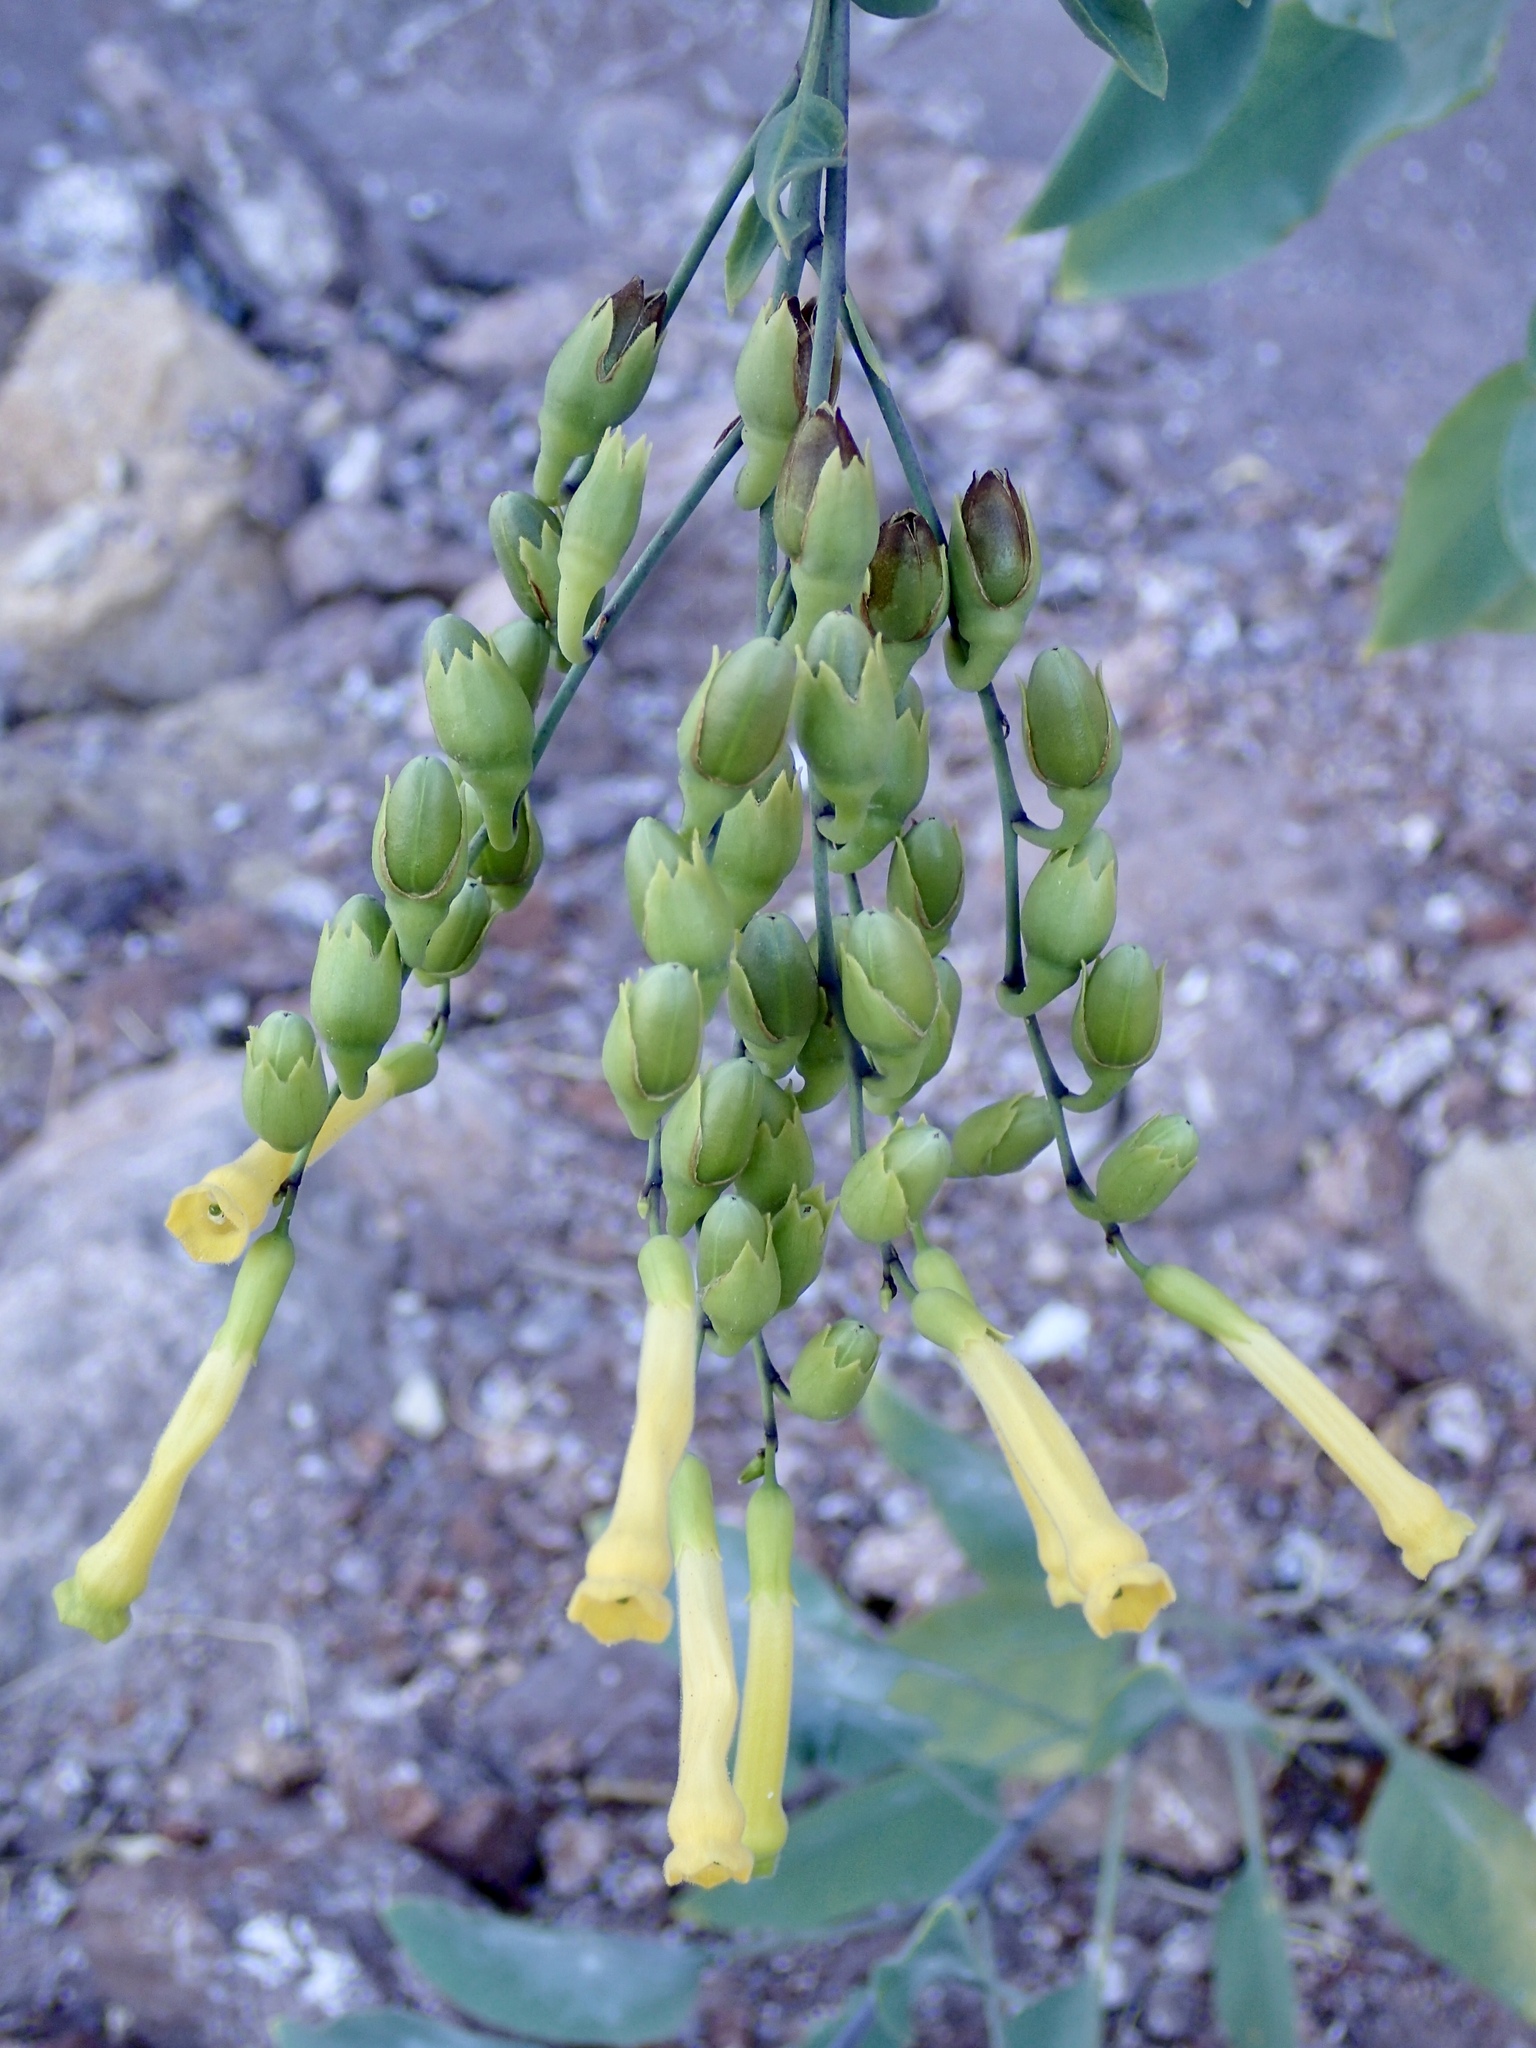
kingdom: Plantae
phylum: Tracheophyta
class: Magnoliopsida
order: Solanales
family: Solanaceae
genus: Nicotiana
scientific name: Nicotiana glauca
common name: Tree tobacco
